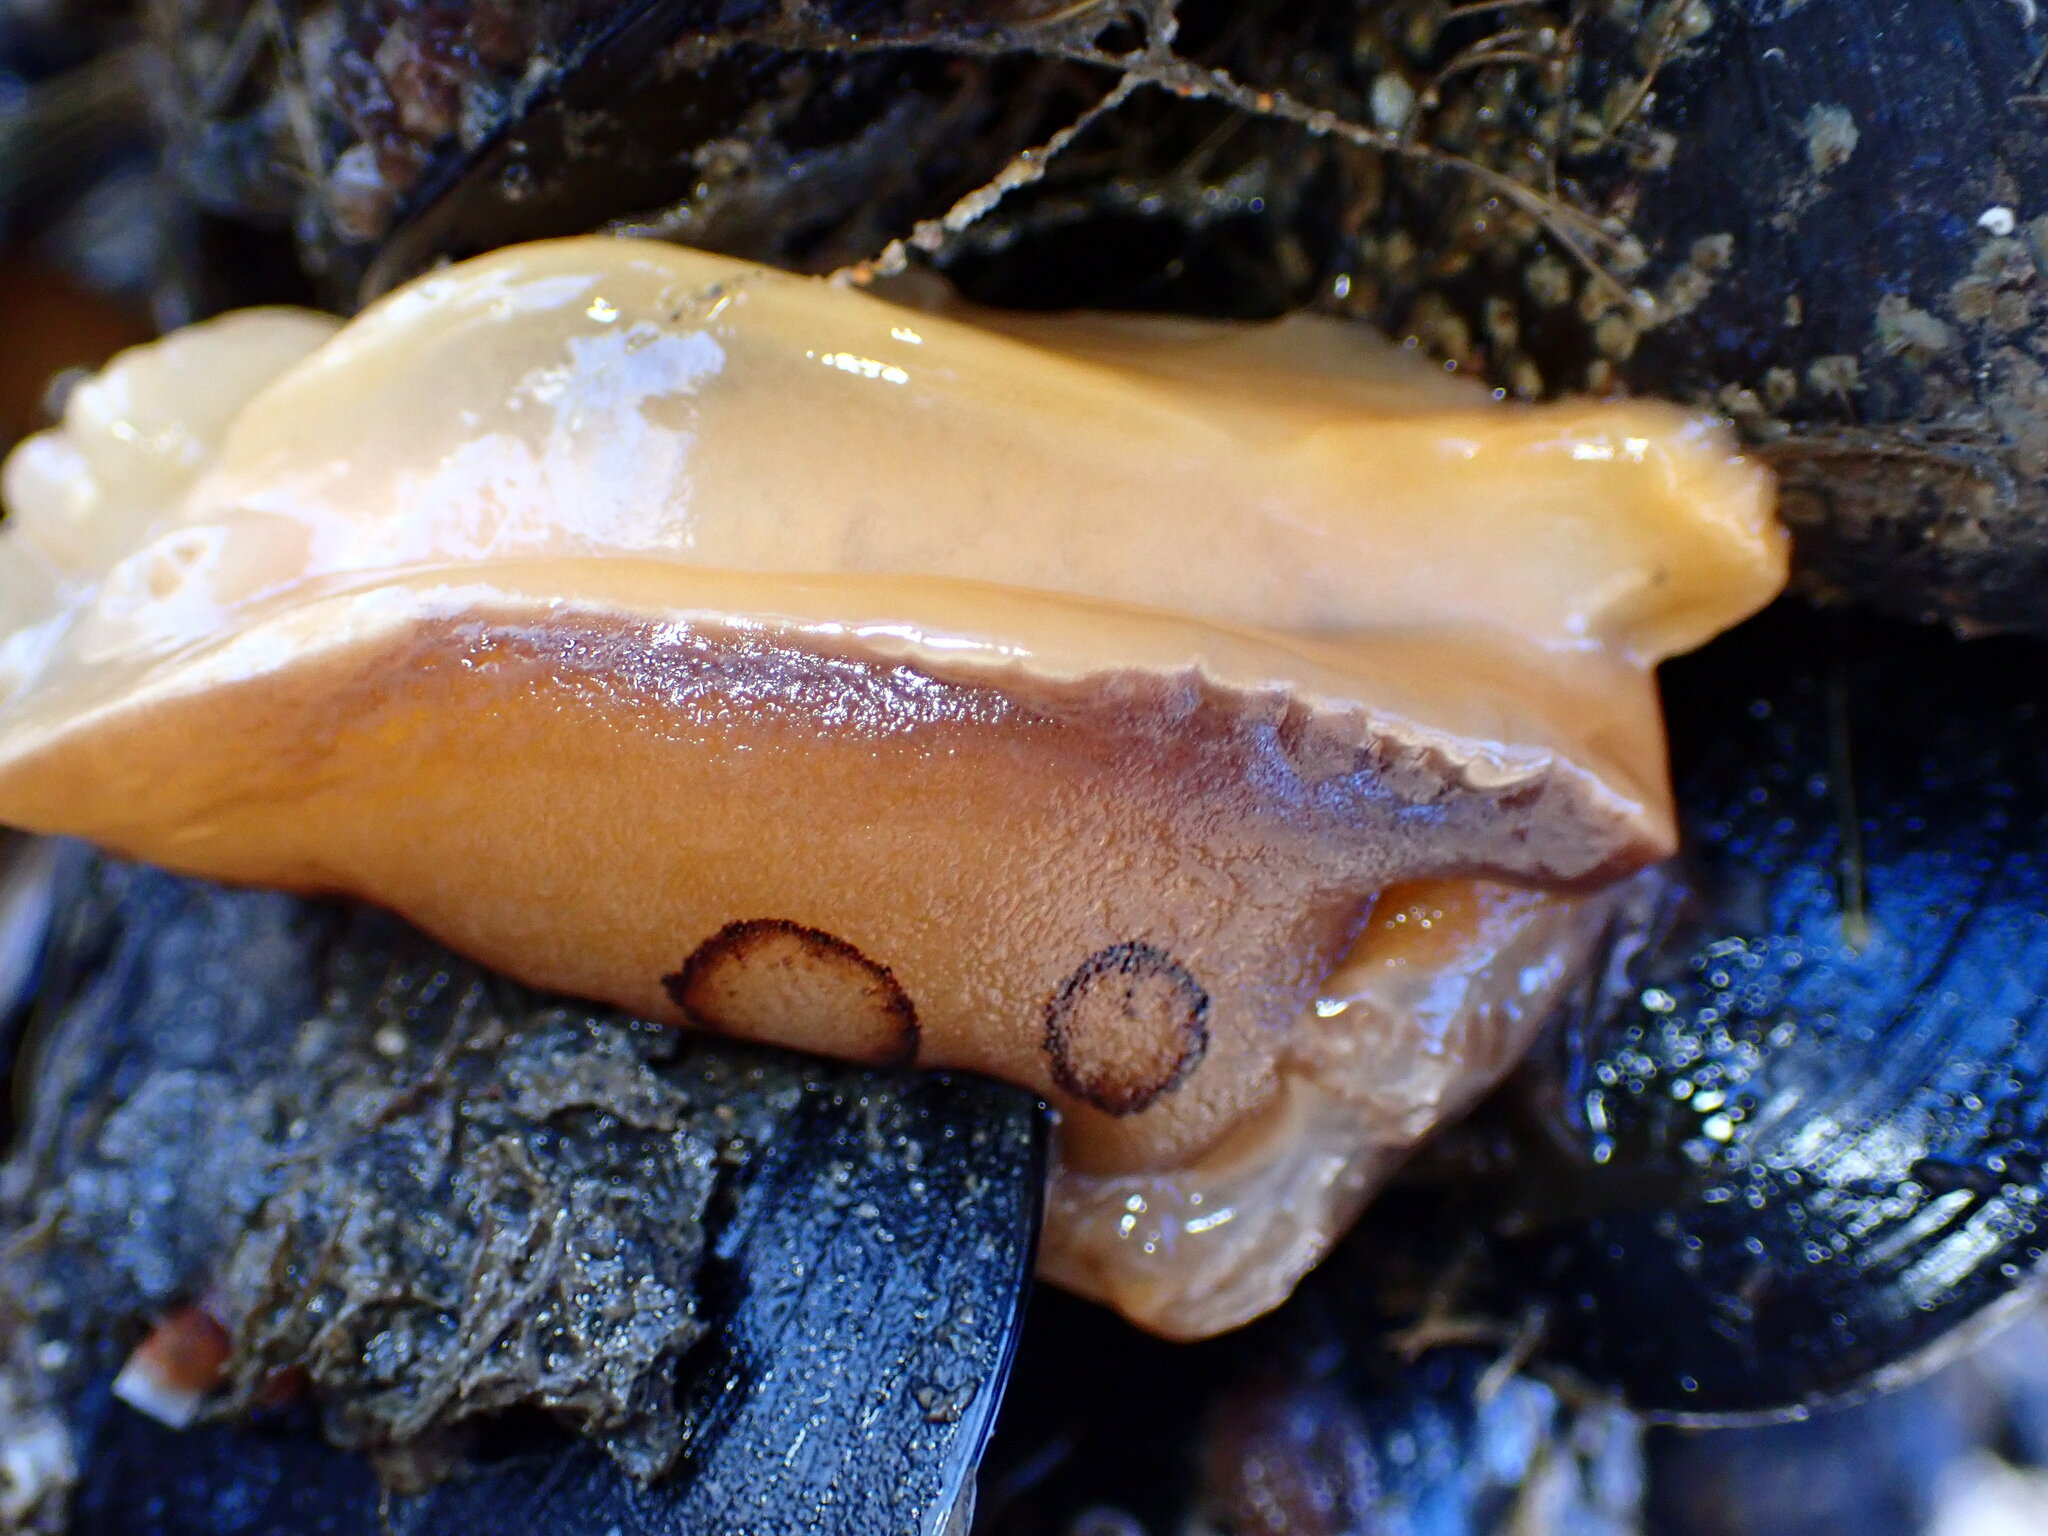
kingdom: Animalia
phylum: Mollusca
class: Gastropoda
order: Nudibranchia
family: Discodorididae
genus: Diaulula
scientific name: Diaulula sandiegensis
